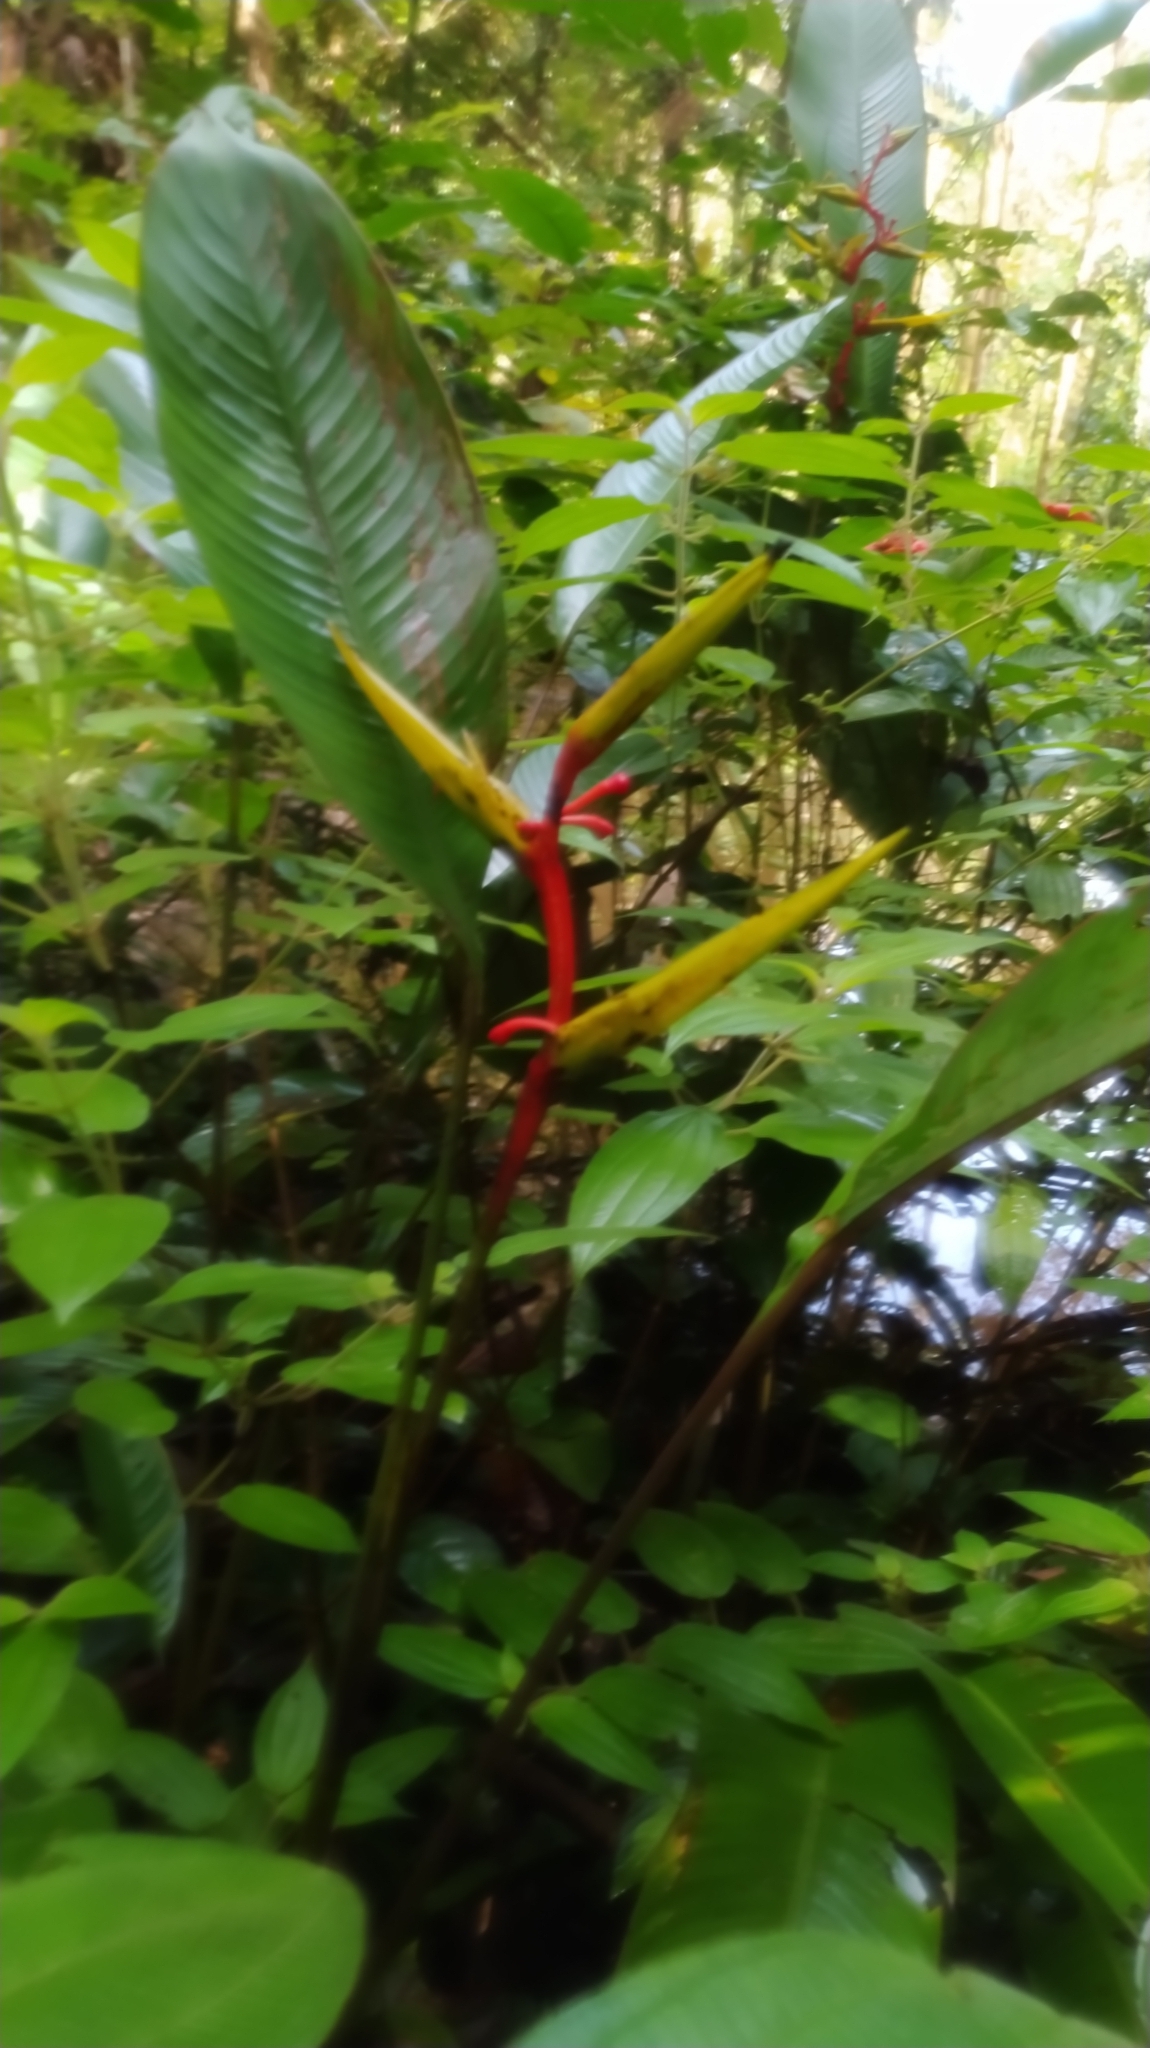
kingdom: Plantae
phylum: Tracheophyta
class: Liliopsida
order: Zingiberales
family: Heliconiaceae
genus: Heliconia
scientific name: Heliconia richardiana
